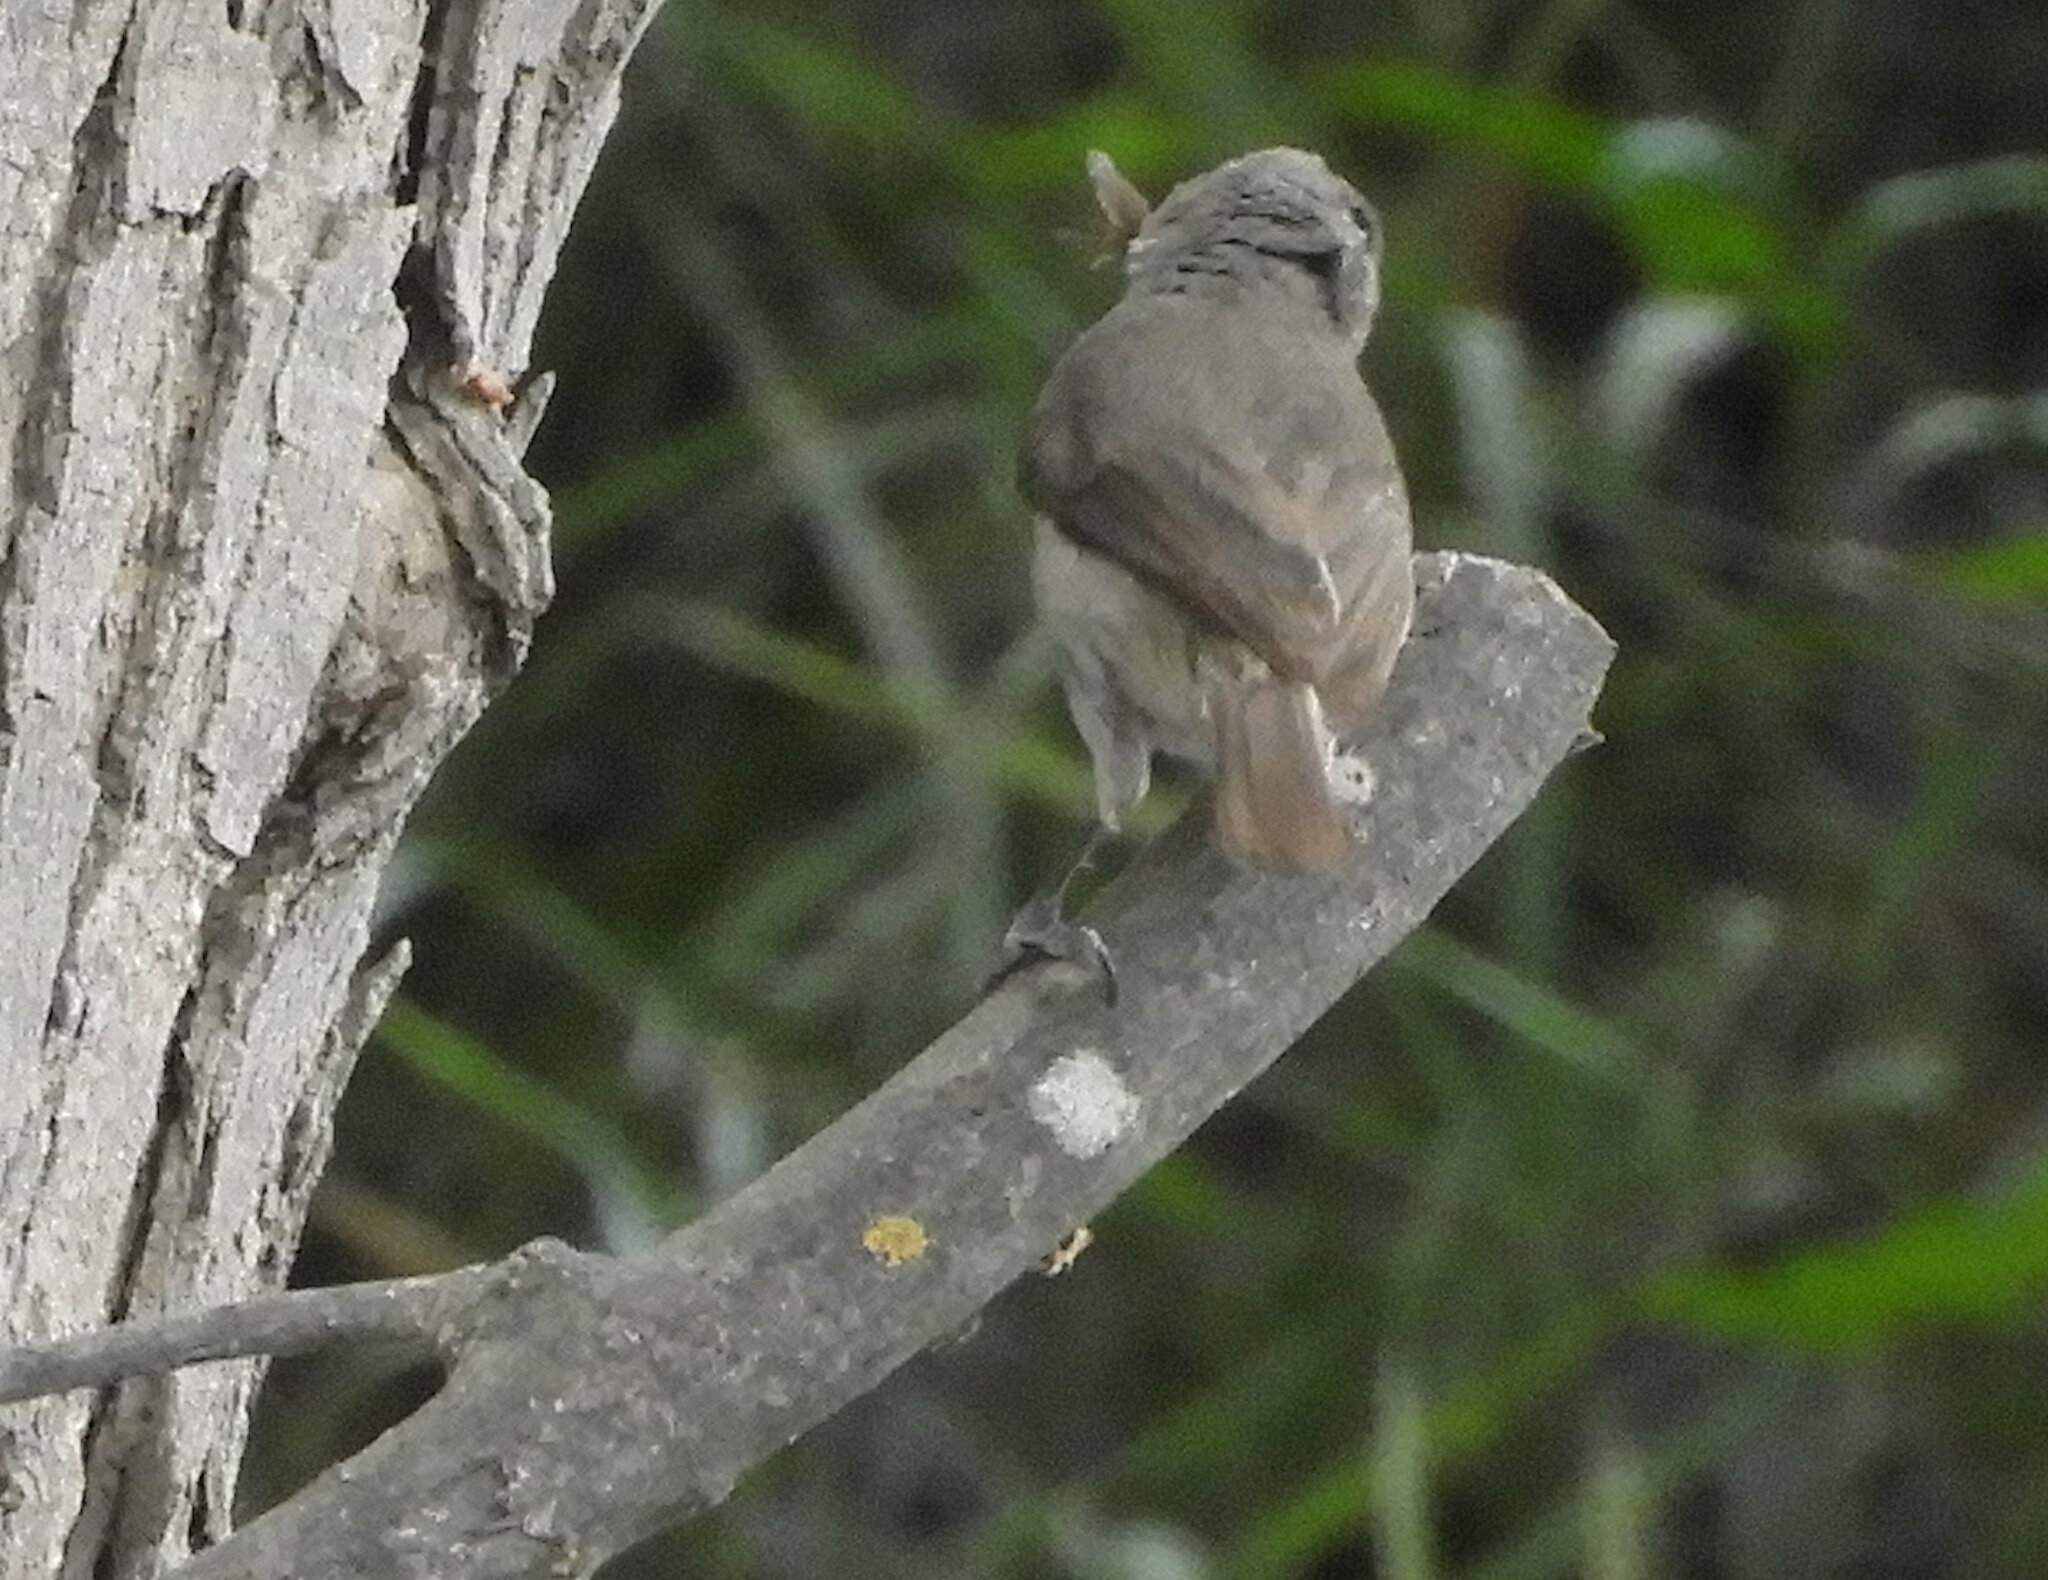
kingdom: Animalia
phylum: Chordata
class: Aves
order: Passeriformes
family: Paridae
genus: Baeolophus
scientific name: Baeolophus inornatus
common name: Oak titmouse
